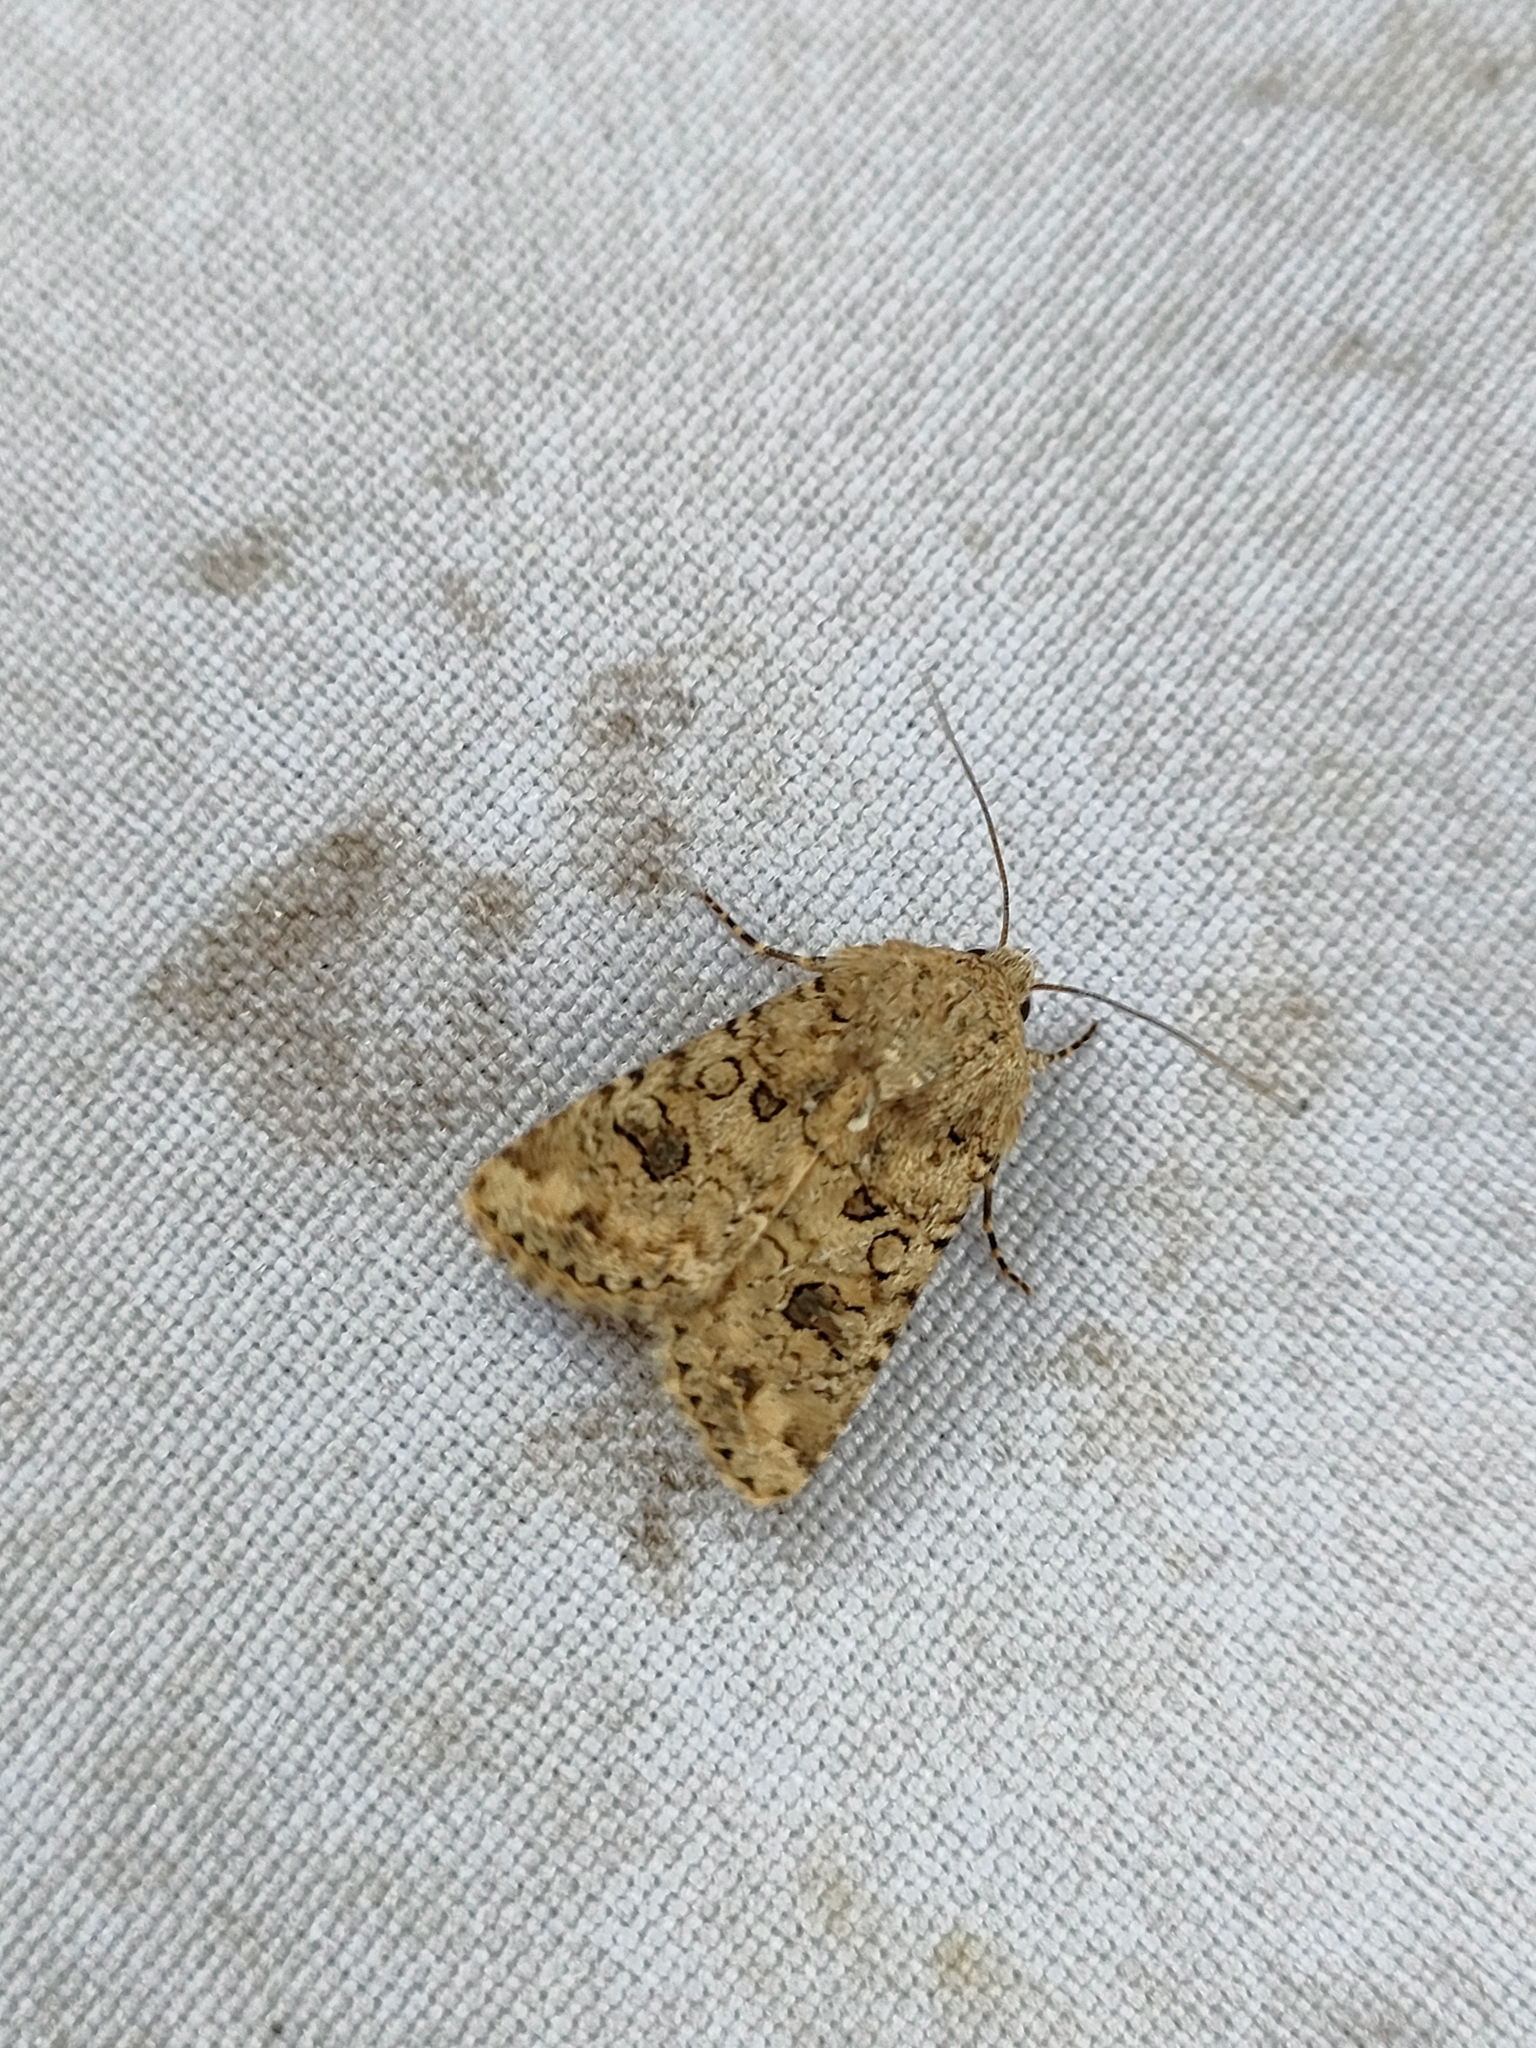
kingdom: Animalia
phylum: Arthropoda
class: Insecta
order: Lepidoptera
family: Noctuidae
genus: Anarta
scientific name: Anarta sodae
